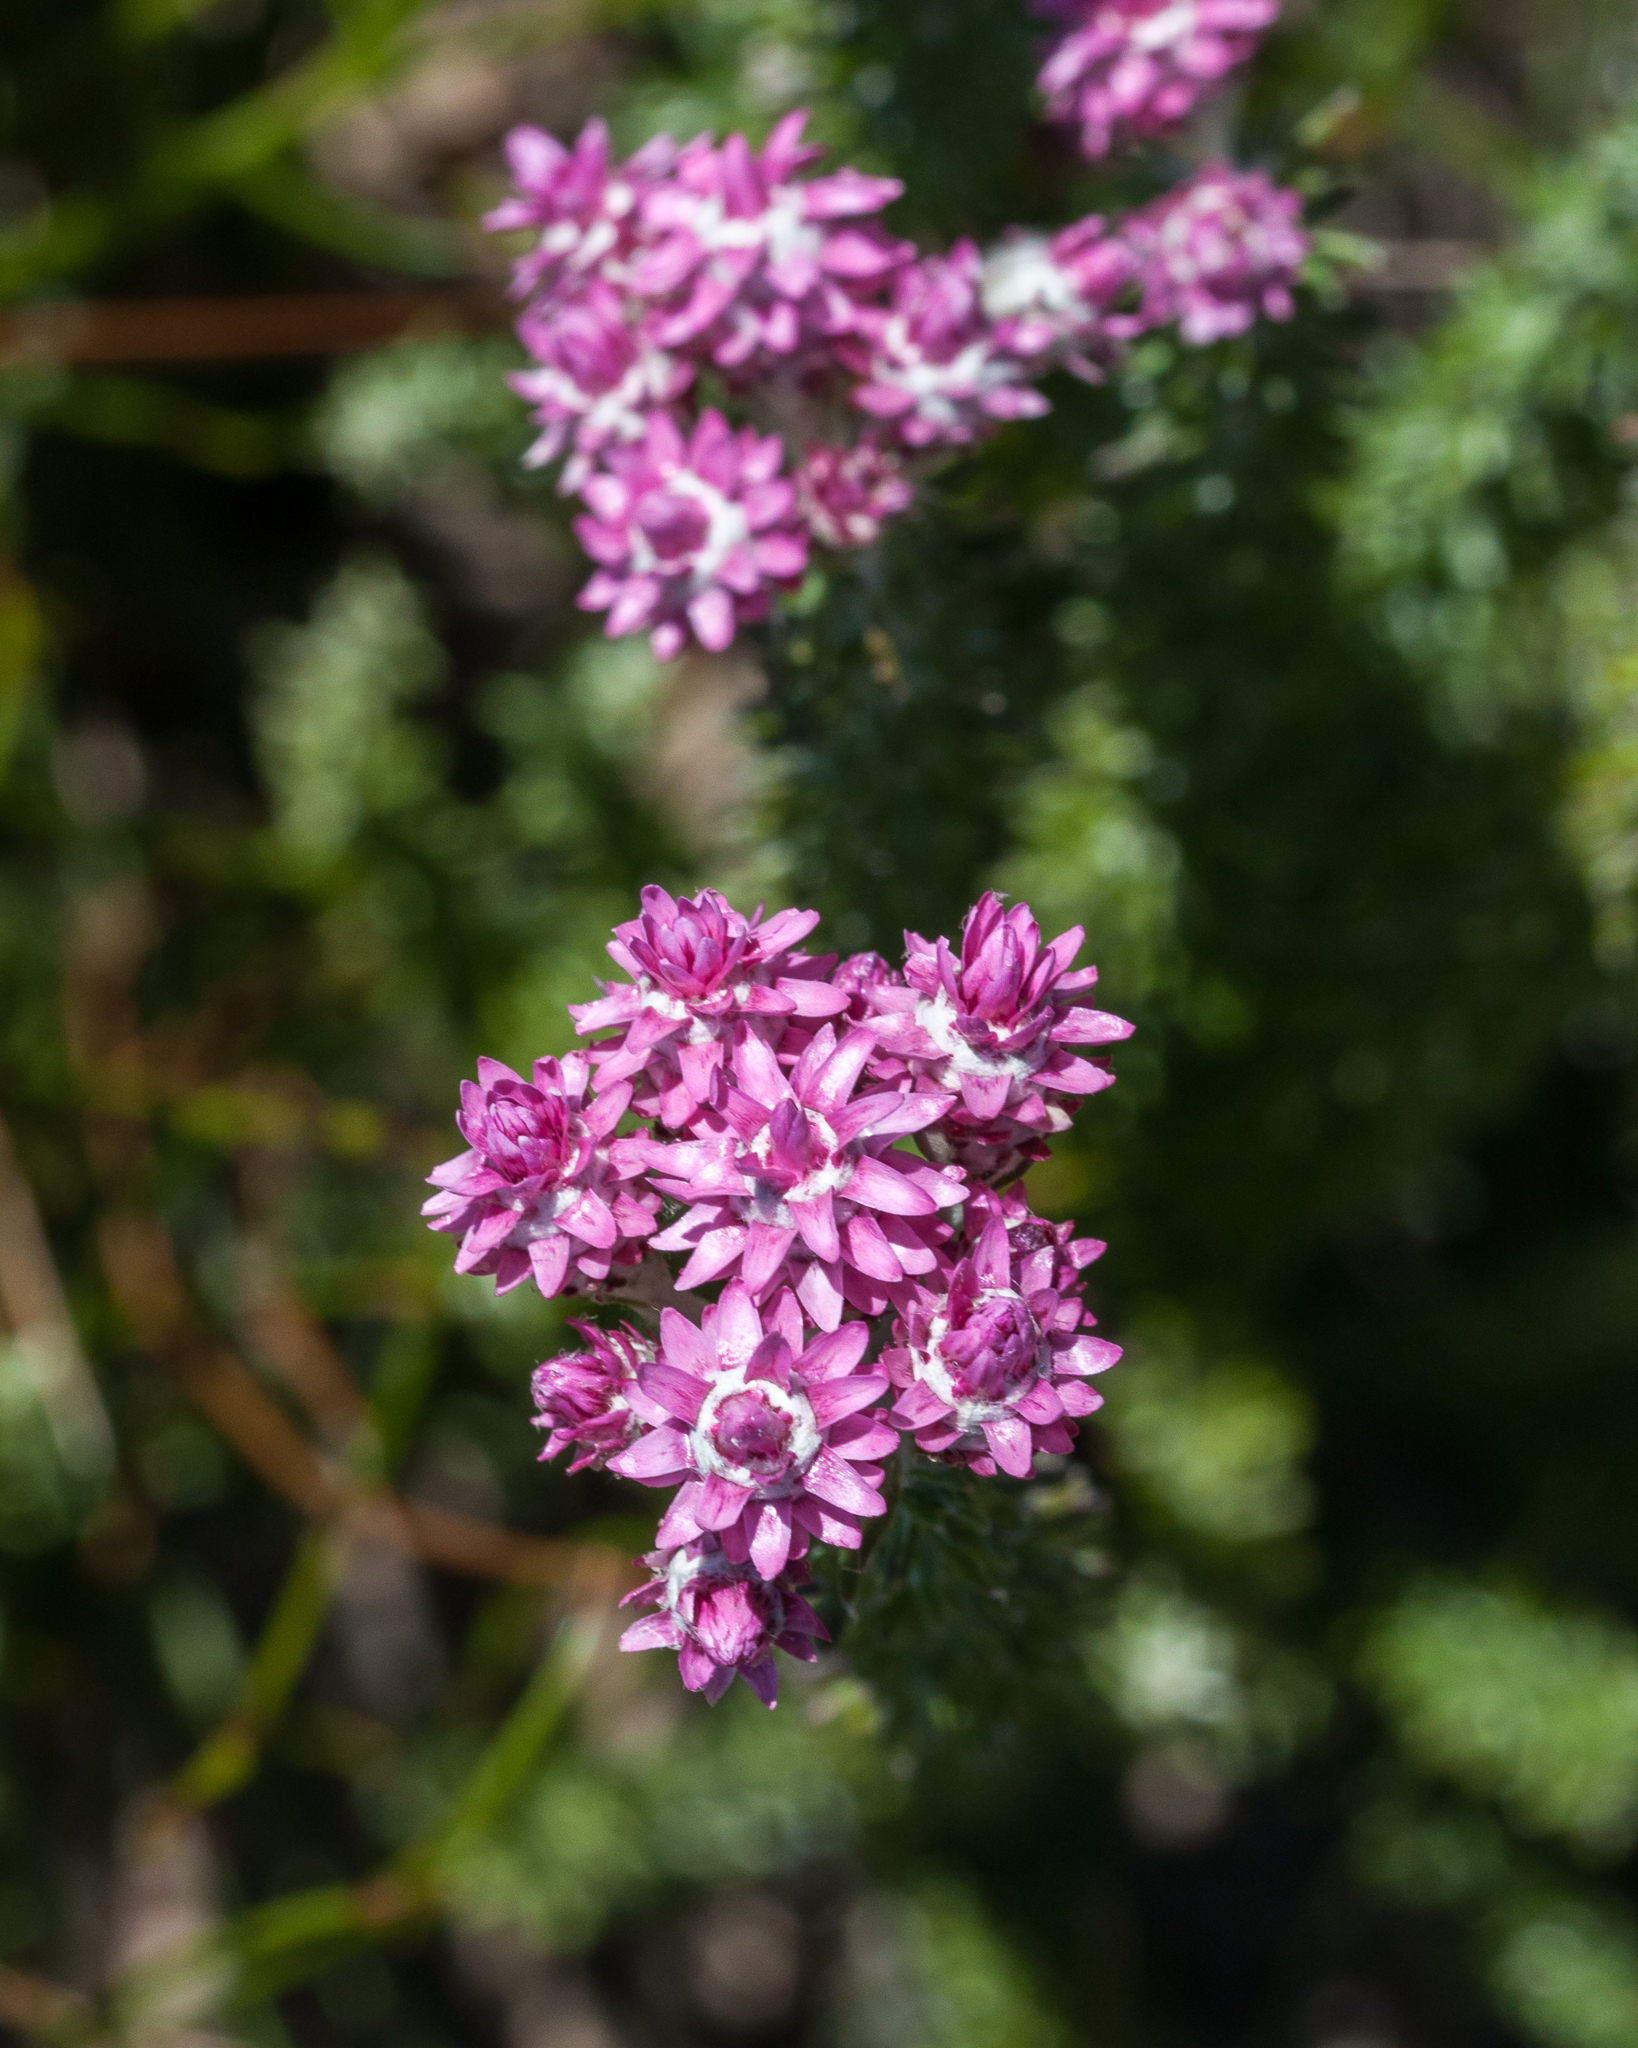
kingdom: Plantae
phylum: Tracheophyta
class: Magnoliopsida
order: Asterales
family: Asteraceae
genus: Lachnospermum
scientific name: Lachnospermum umbellatum
